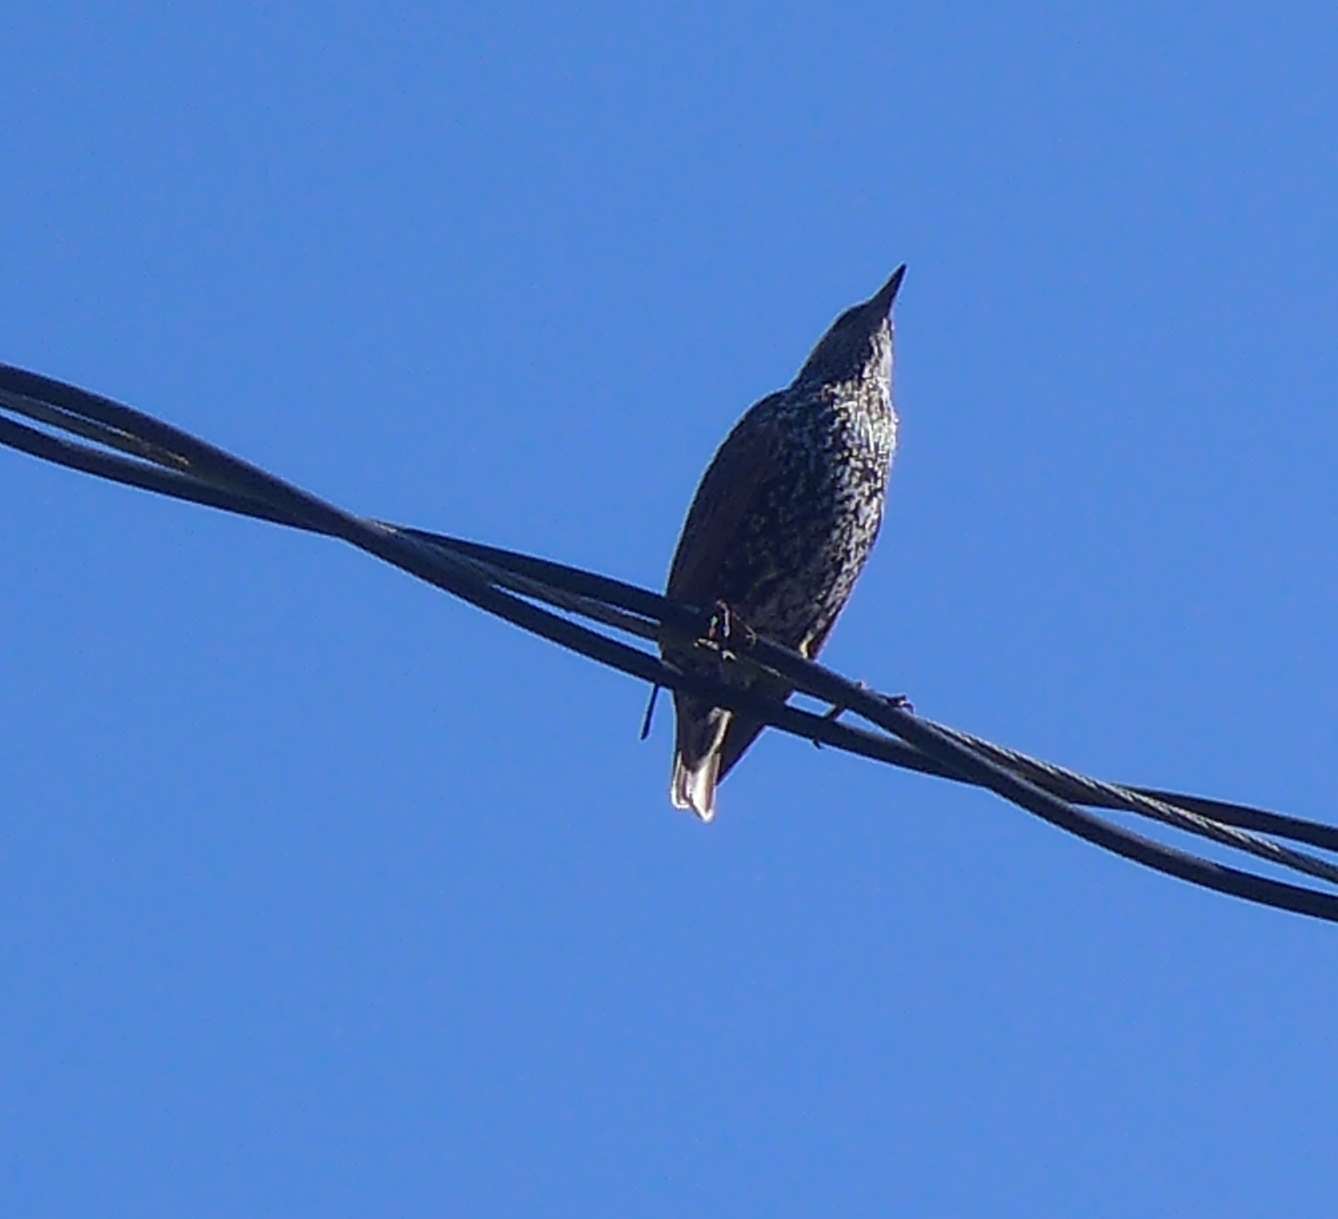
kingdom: Animalia
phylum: Chordata
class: Aves
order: Passeriformes
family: Sturnidae
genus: Sturnus
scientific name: Sturnus vulgaris
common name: Common starling
